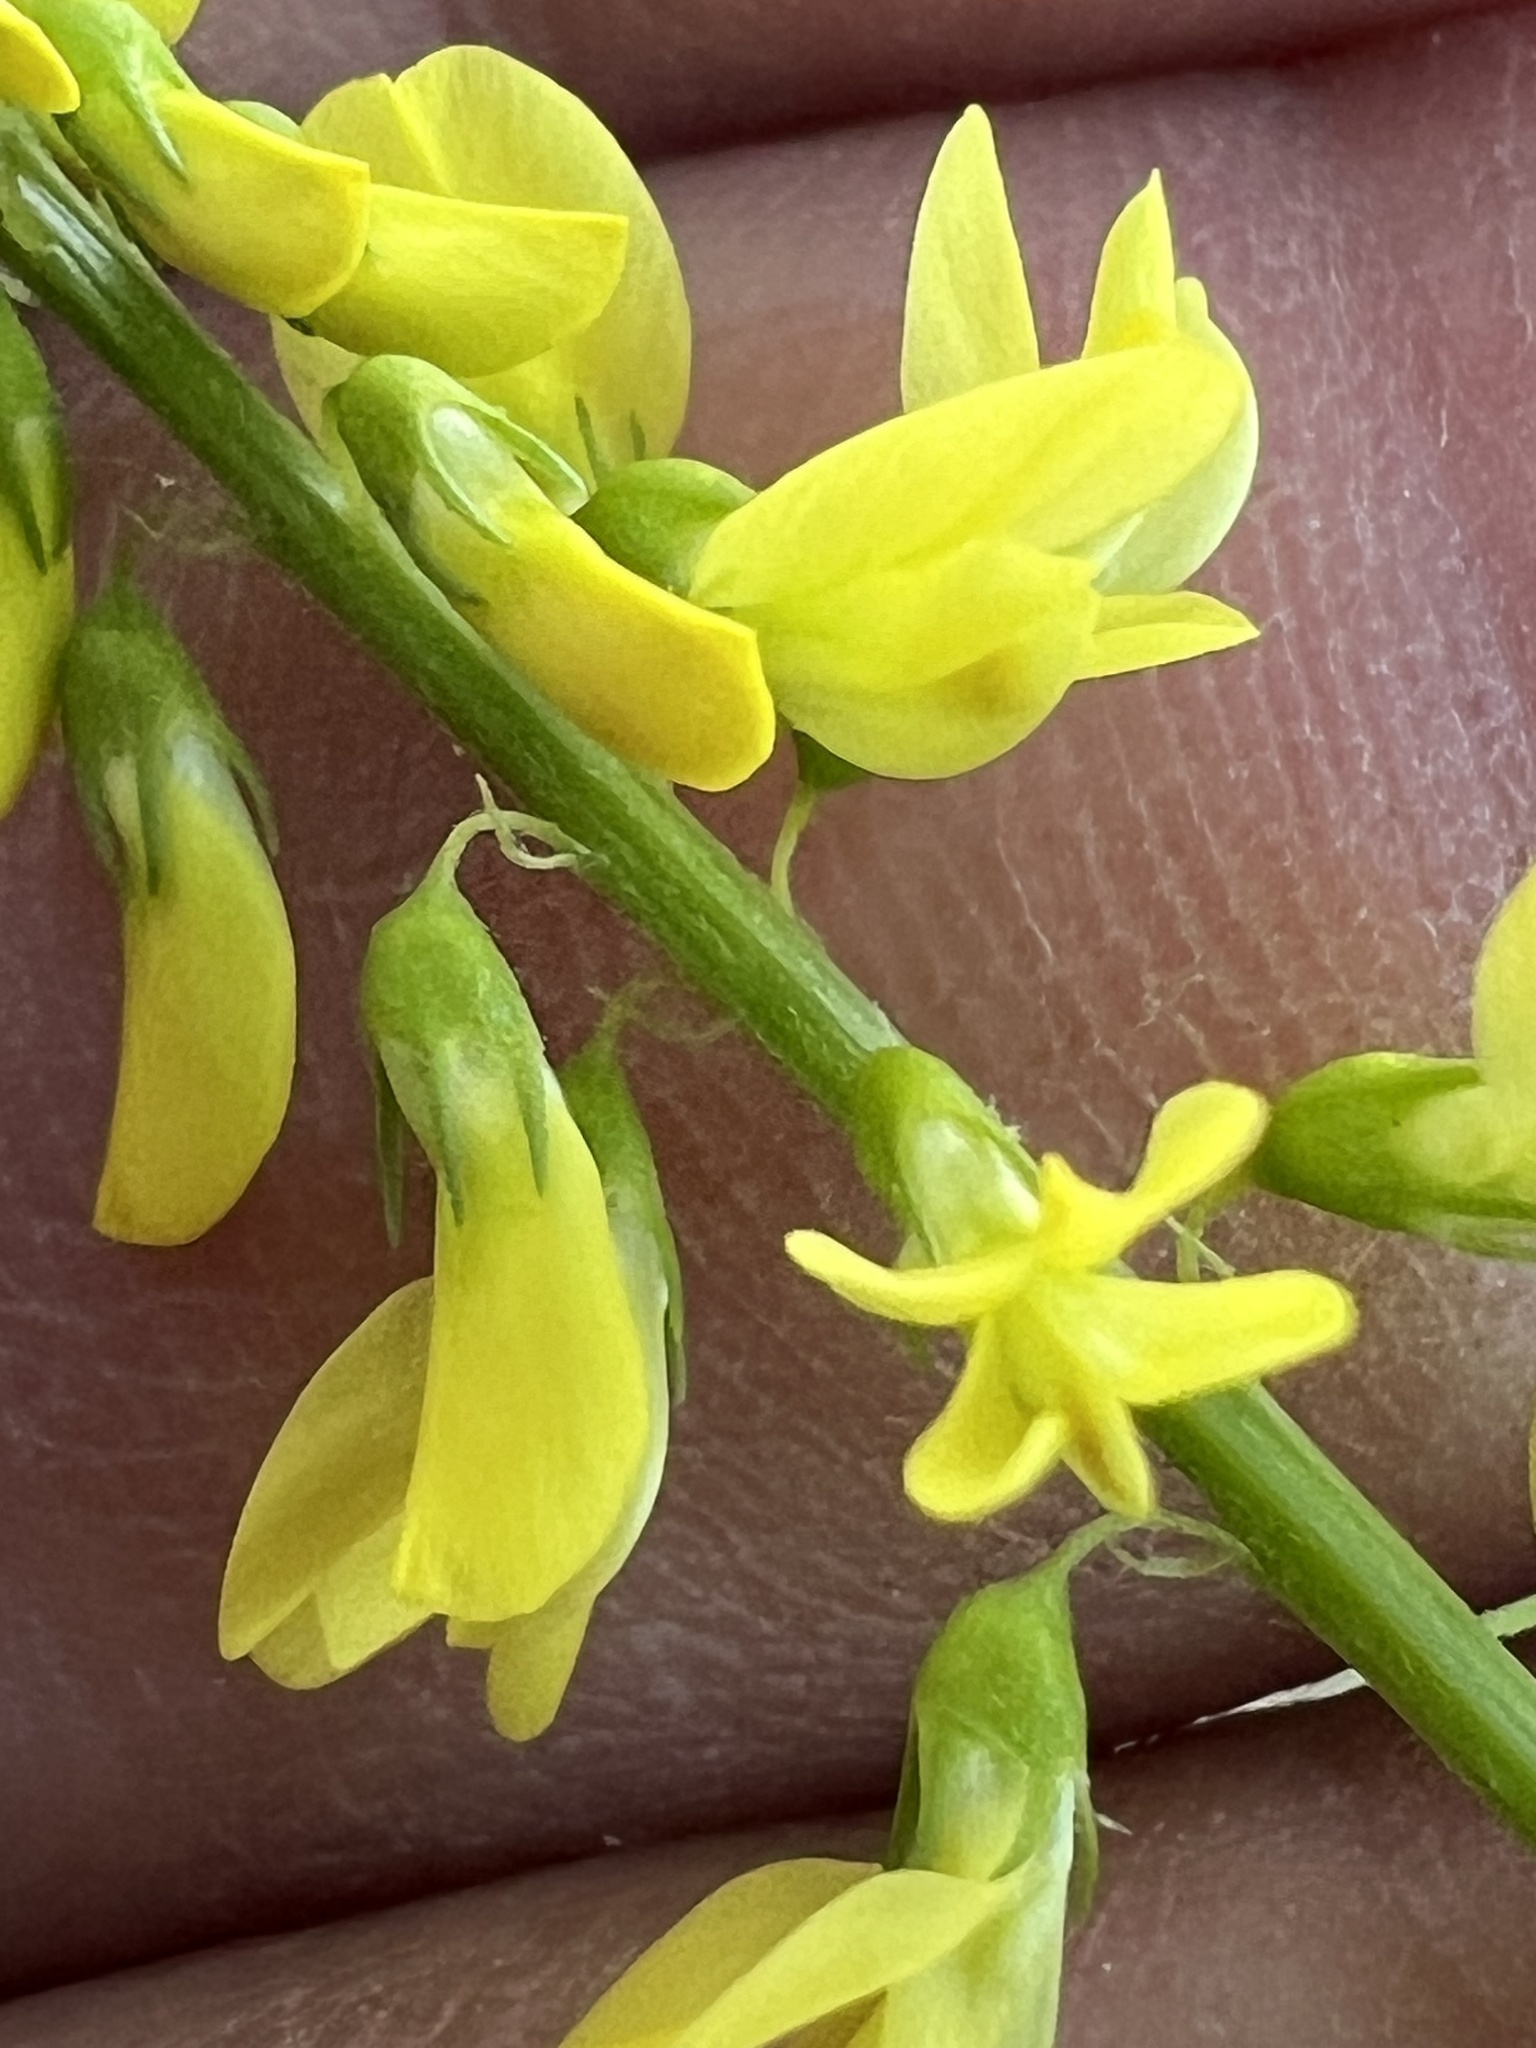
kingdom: Plantae
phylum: Tracheophyta
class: Magnoliopsida
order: Fabales
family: Fabaceae
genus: Melilotus
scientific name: Melilotus officinalis
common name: Sweetclover
